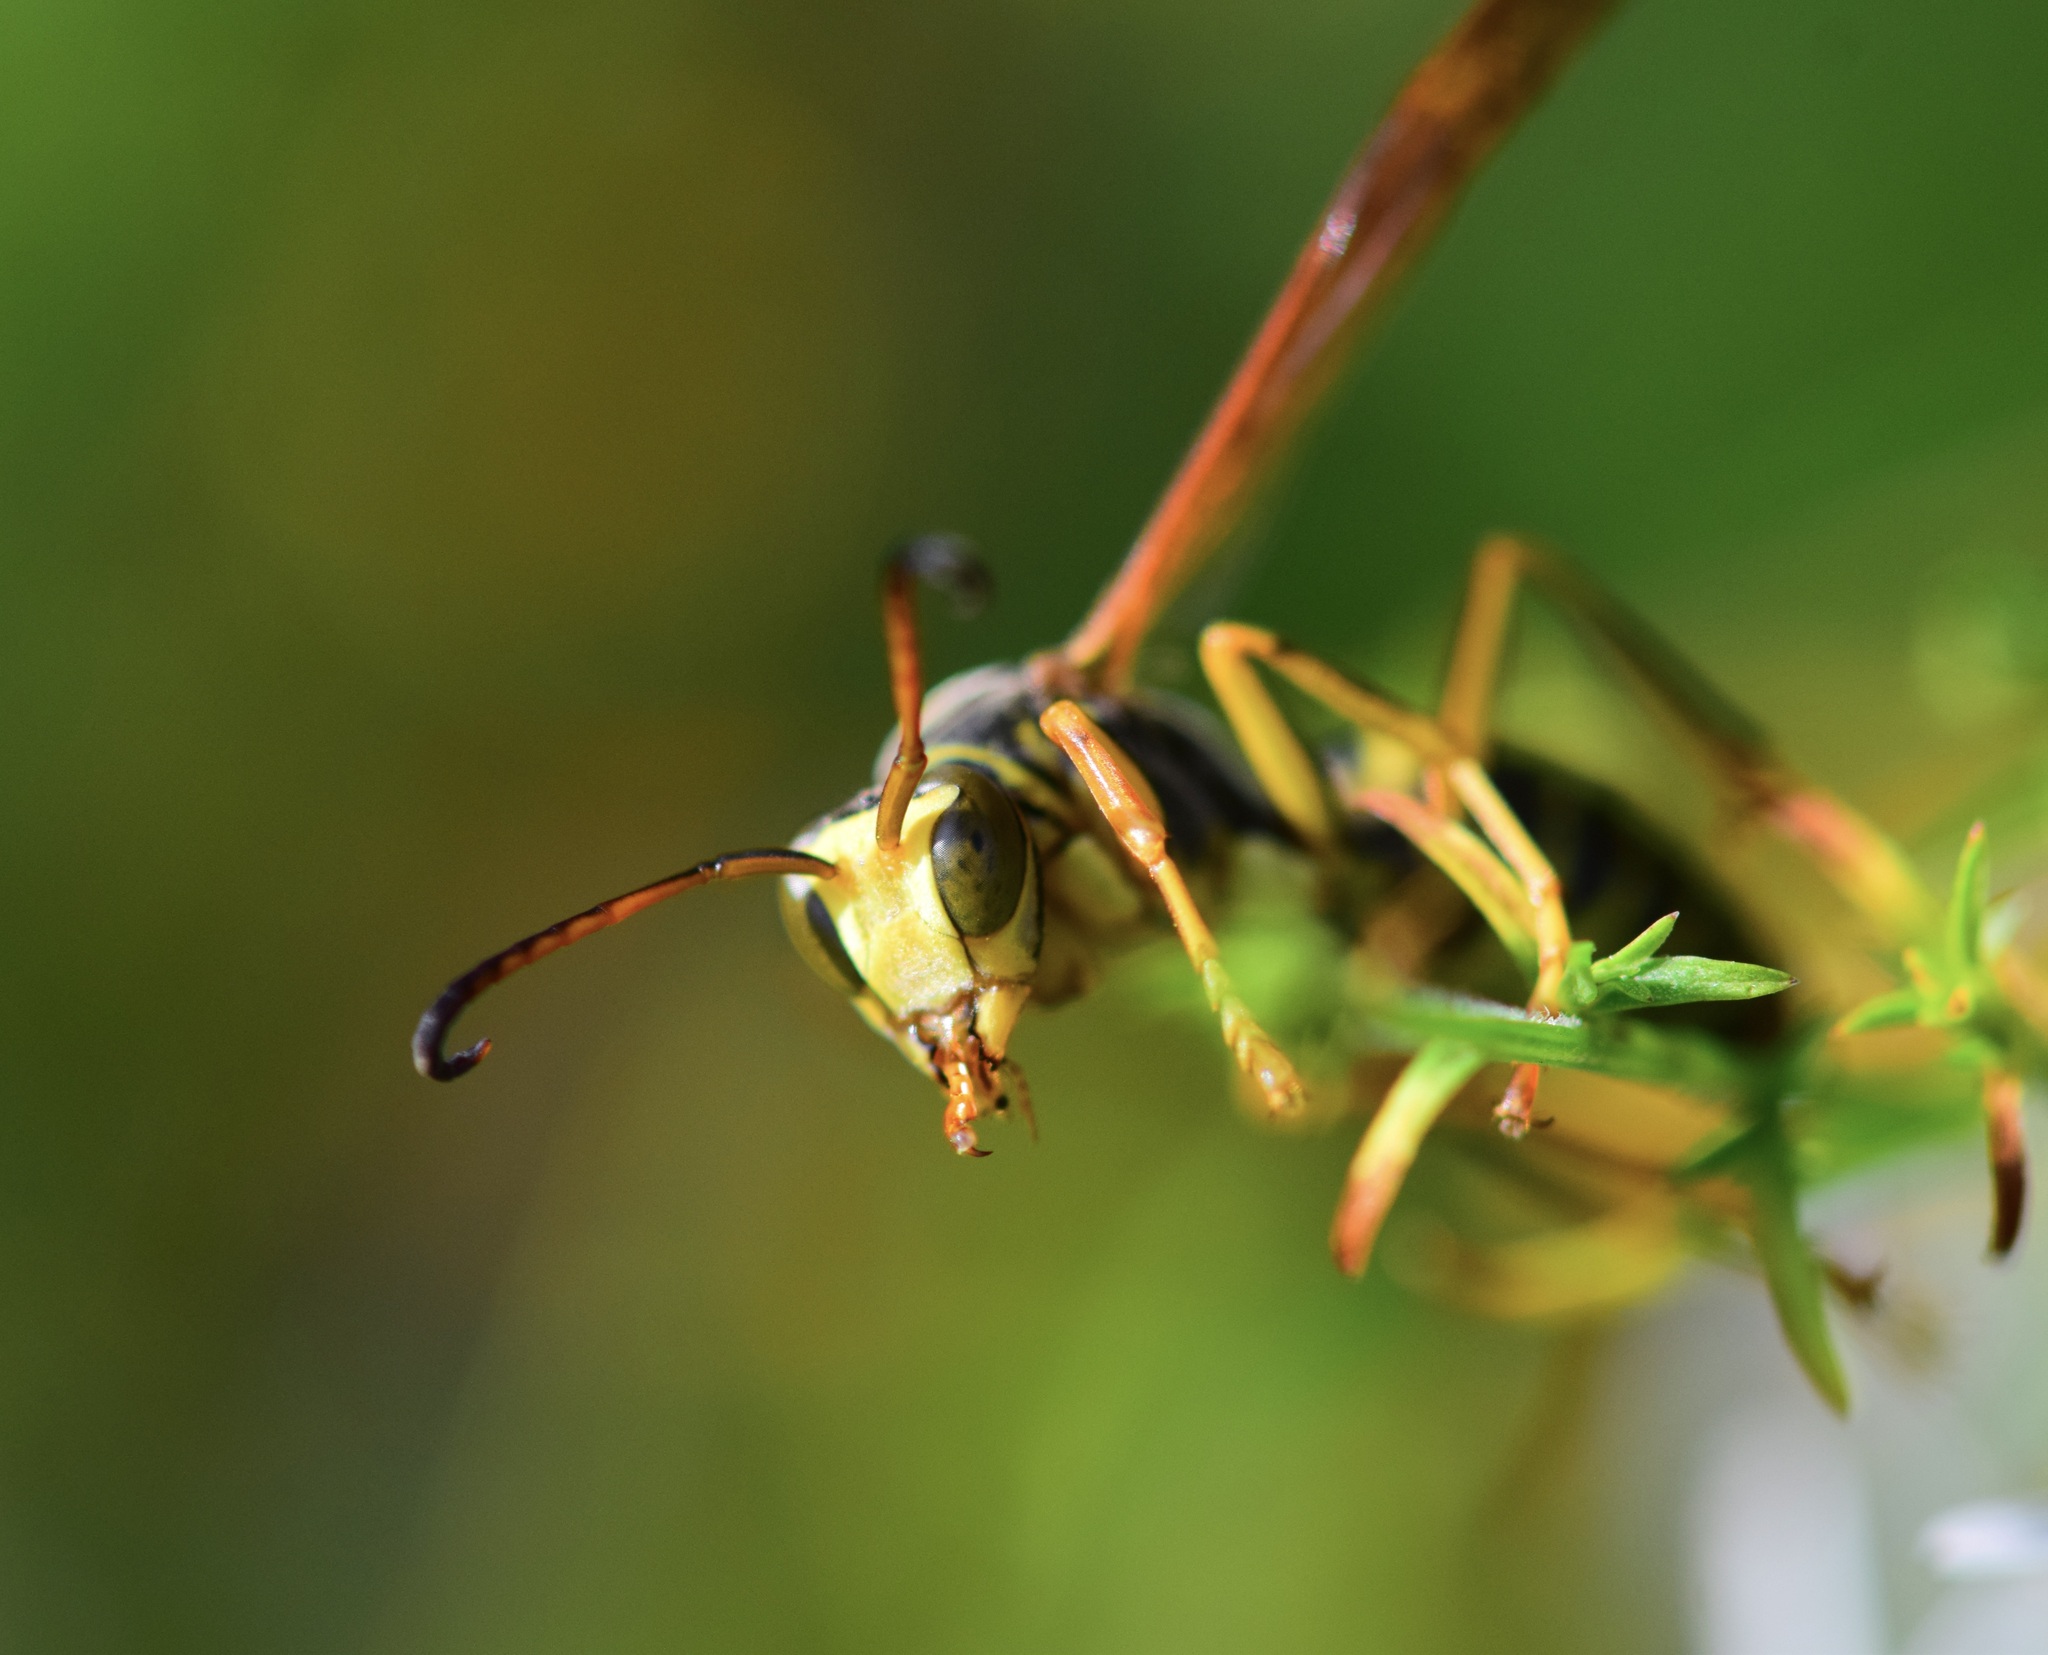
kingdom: Animalia
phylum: Arthropoda
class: Insecta
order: Hymenoptera
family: Eumenidae
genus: Polistes
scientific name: Polistes fuscatus
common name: Dark paper wasp
